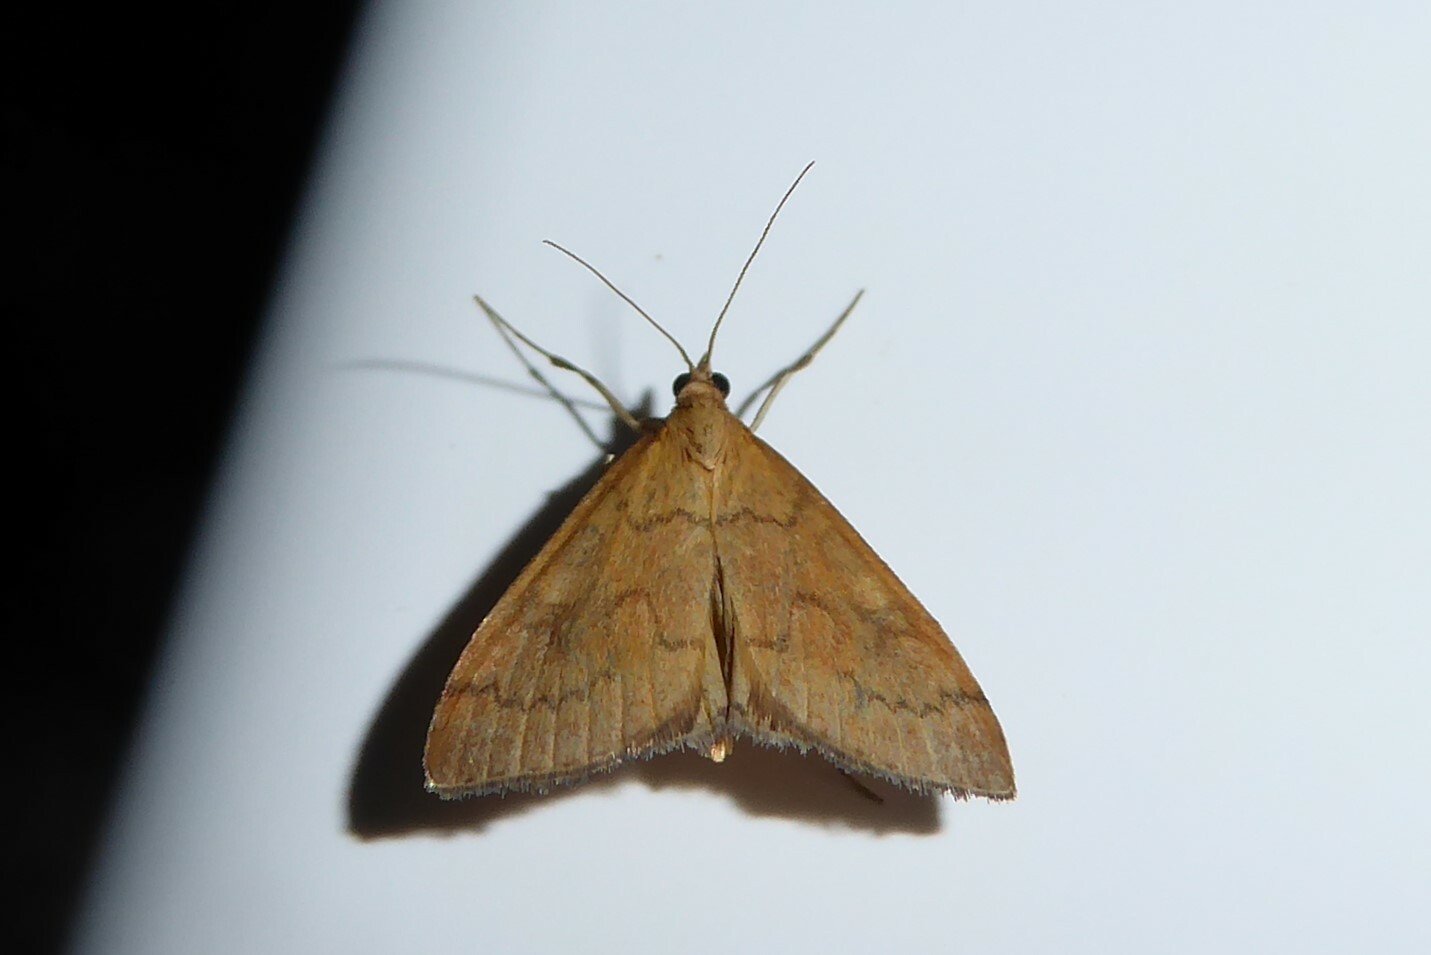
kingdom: Animalia
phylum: Arthropoda
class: Insecta
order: Lepidoptera
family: Crambidae
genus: Udea
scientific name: Udea Mnesictena flavidalis
